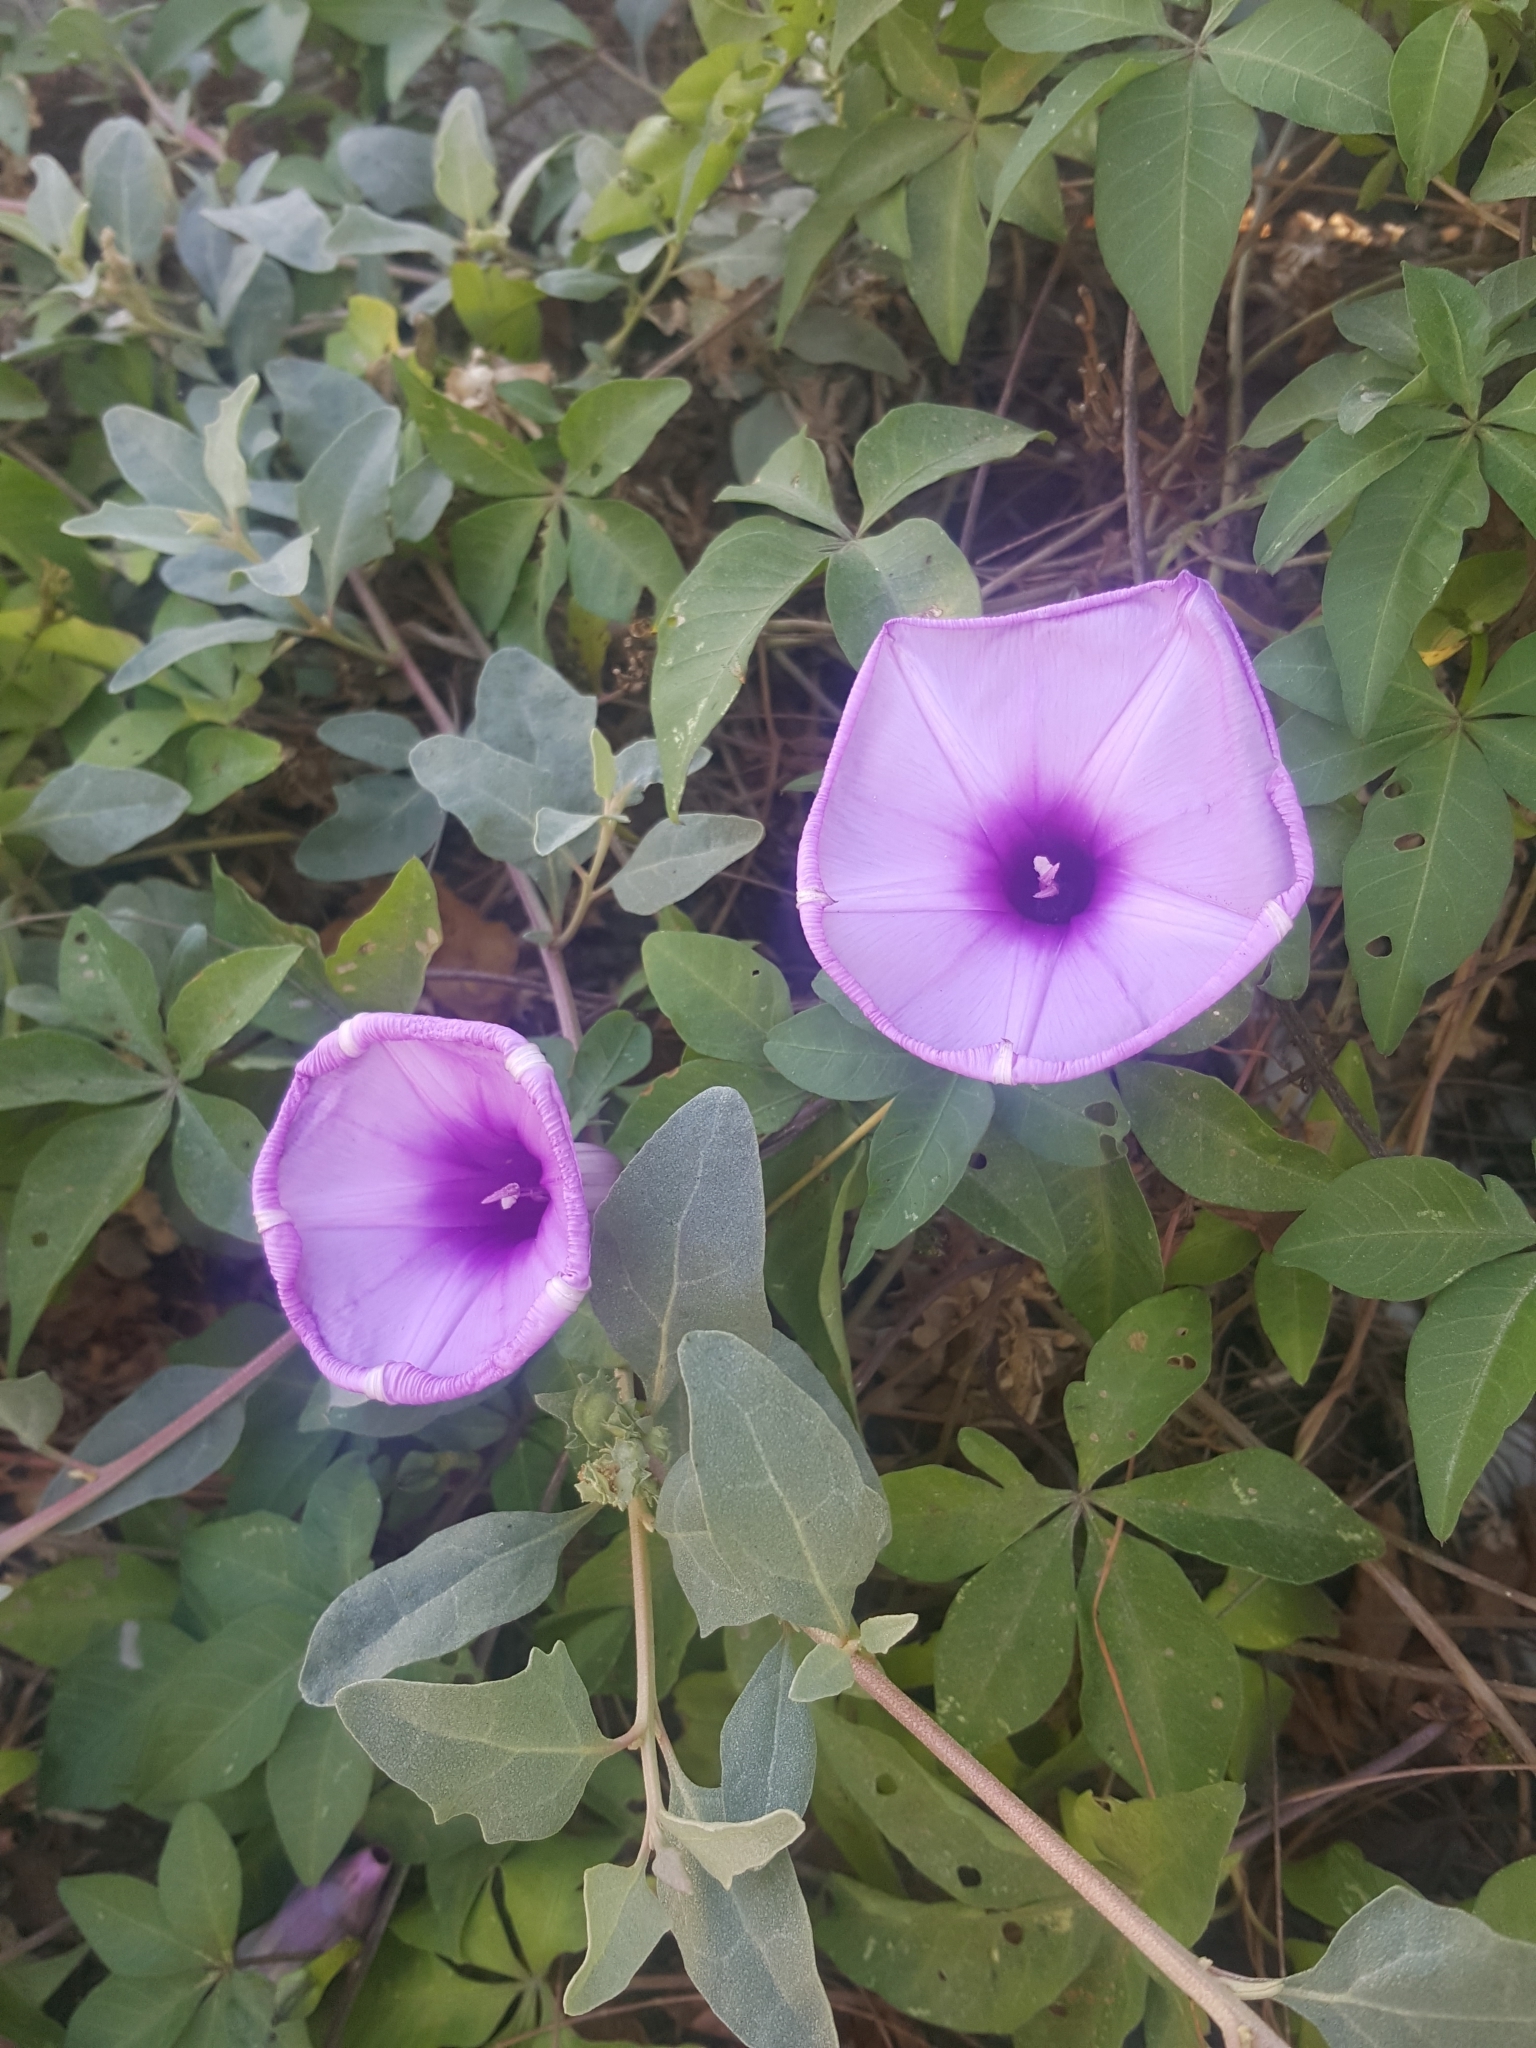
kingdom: Plantae
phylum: Tracheophyta
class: Magnoliopsida
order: Solanales
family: Convolvulaceae
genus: Ipomoea
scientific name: Ipomoea cairica
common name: Mile a minute vine
